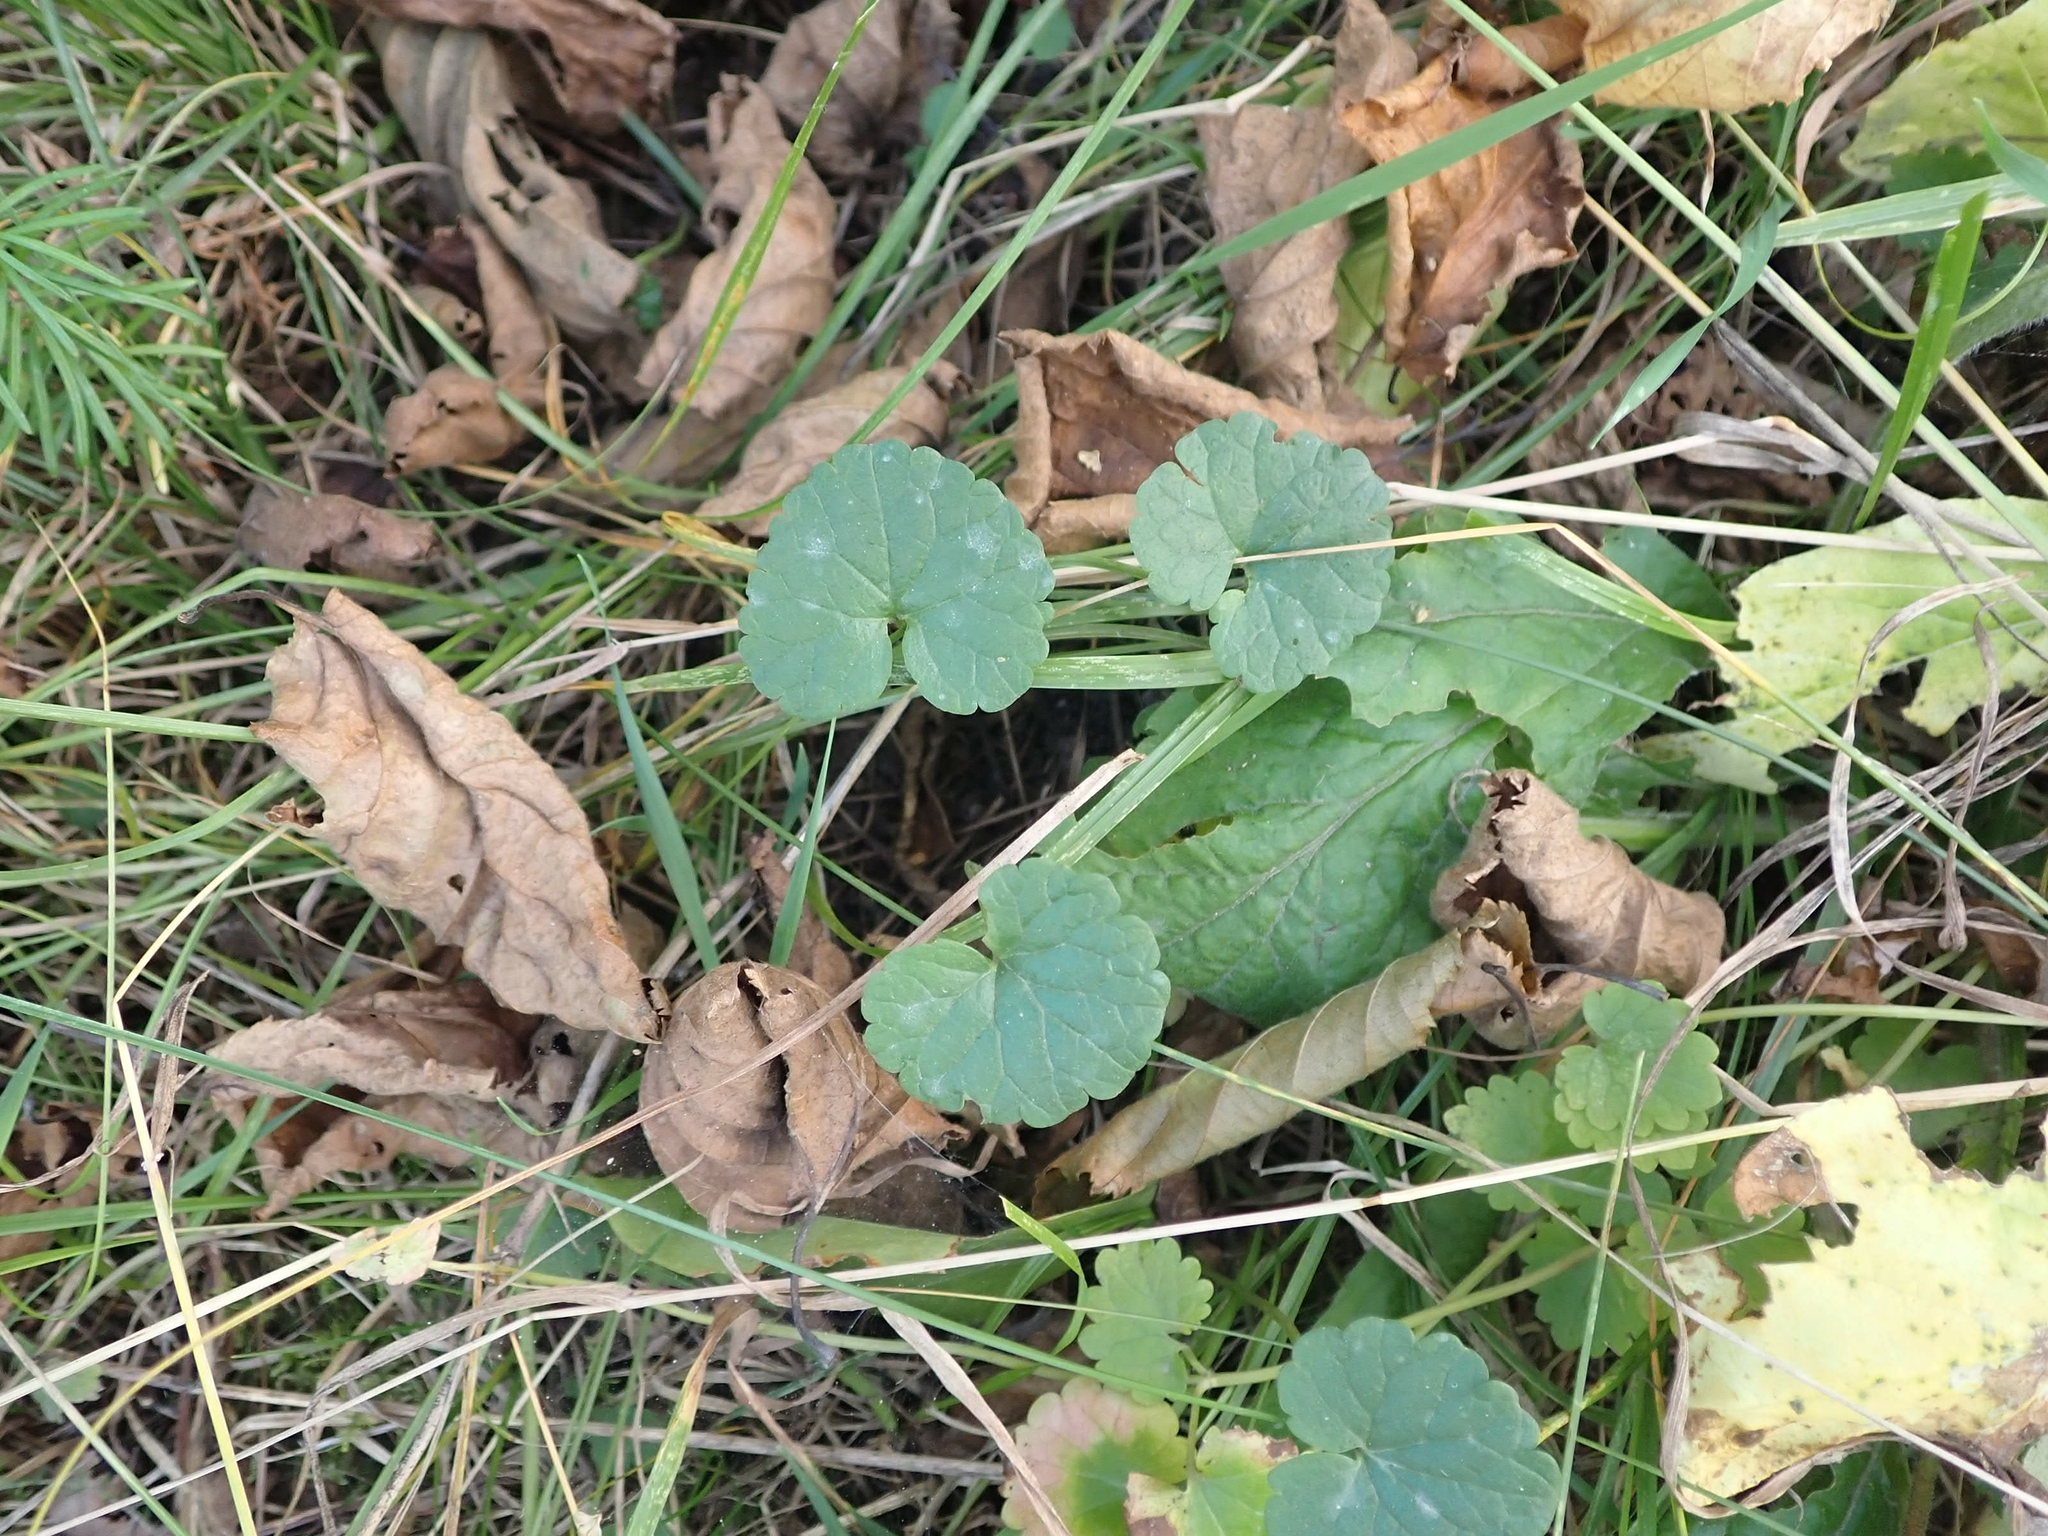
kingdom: Plantae
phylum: Tracheophyta
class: Magnoliopsida
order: Lamiales
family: Lamiaceae
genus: Glechoma
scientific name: Glechoma hederacea
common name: Ground ivy
